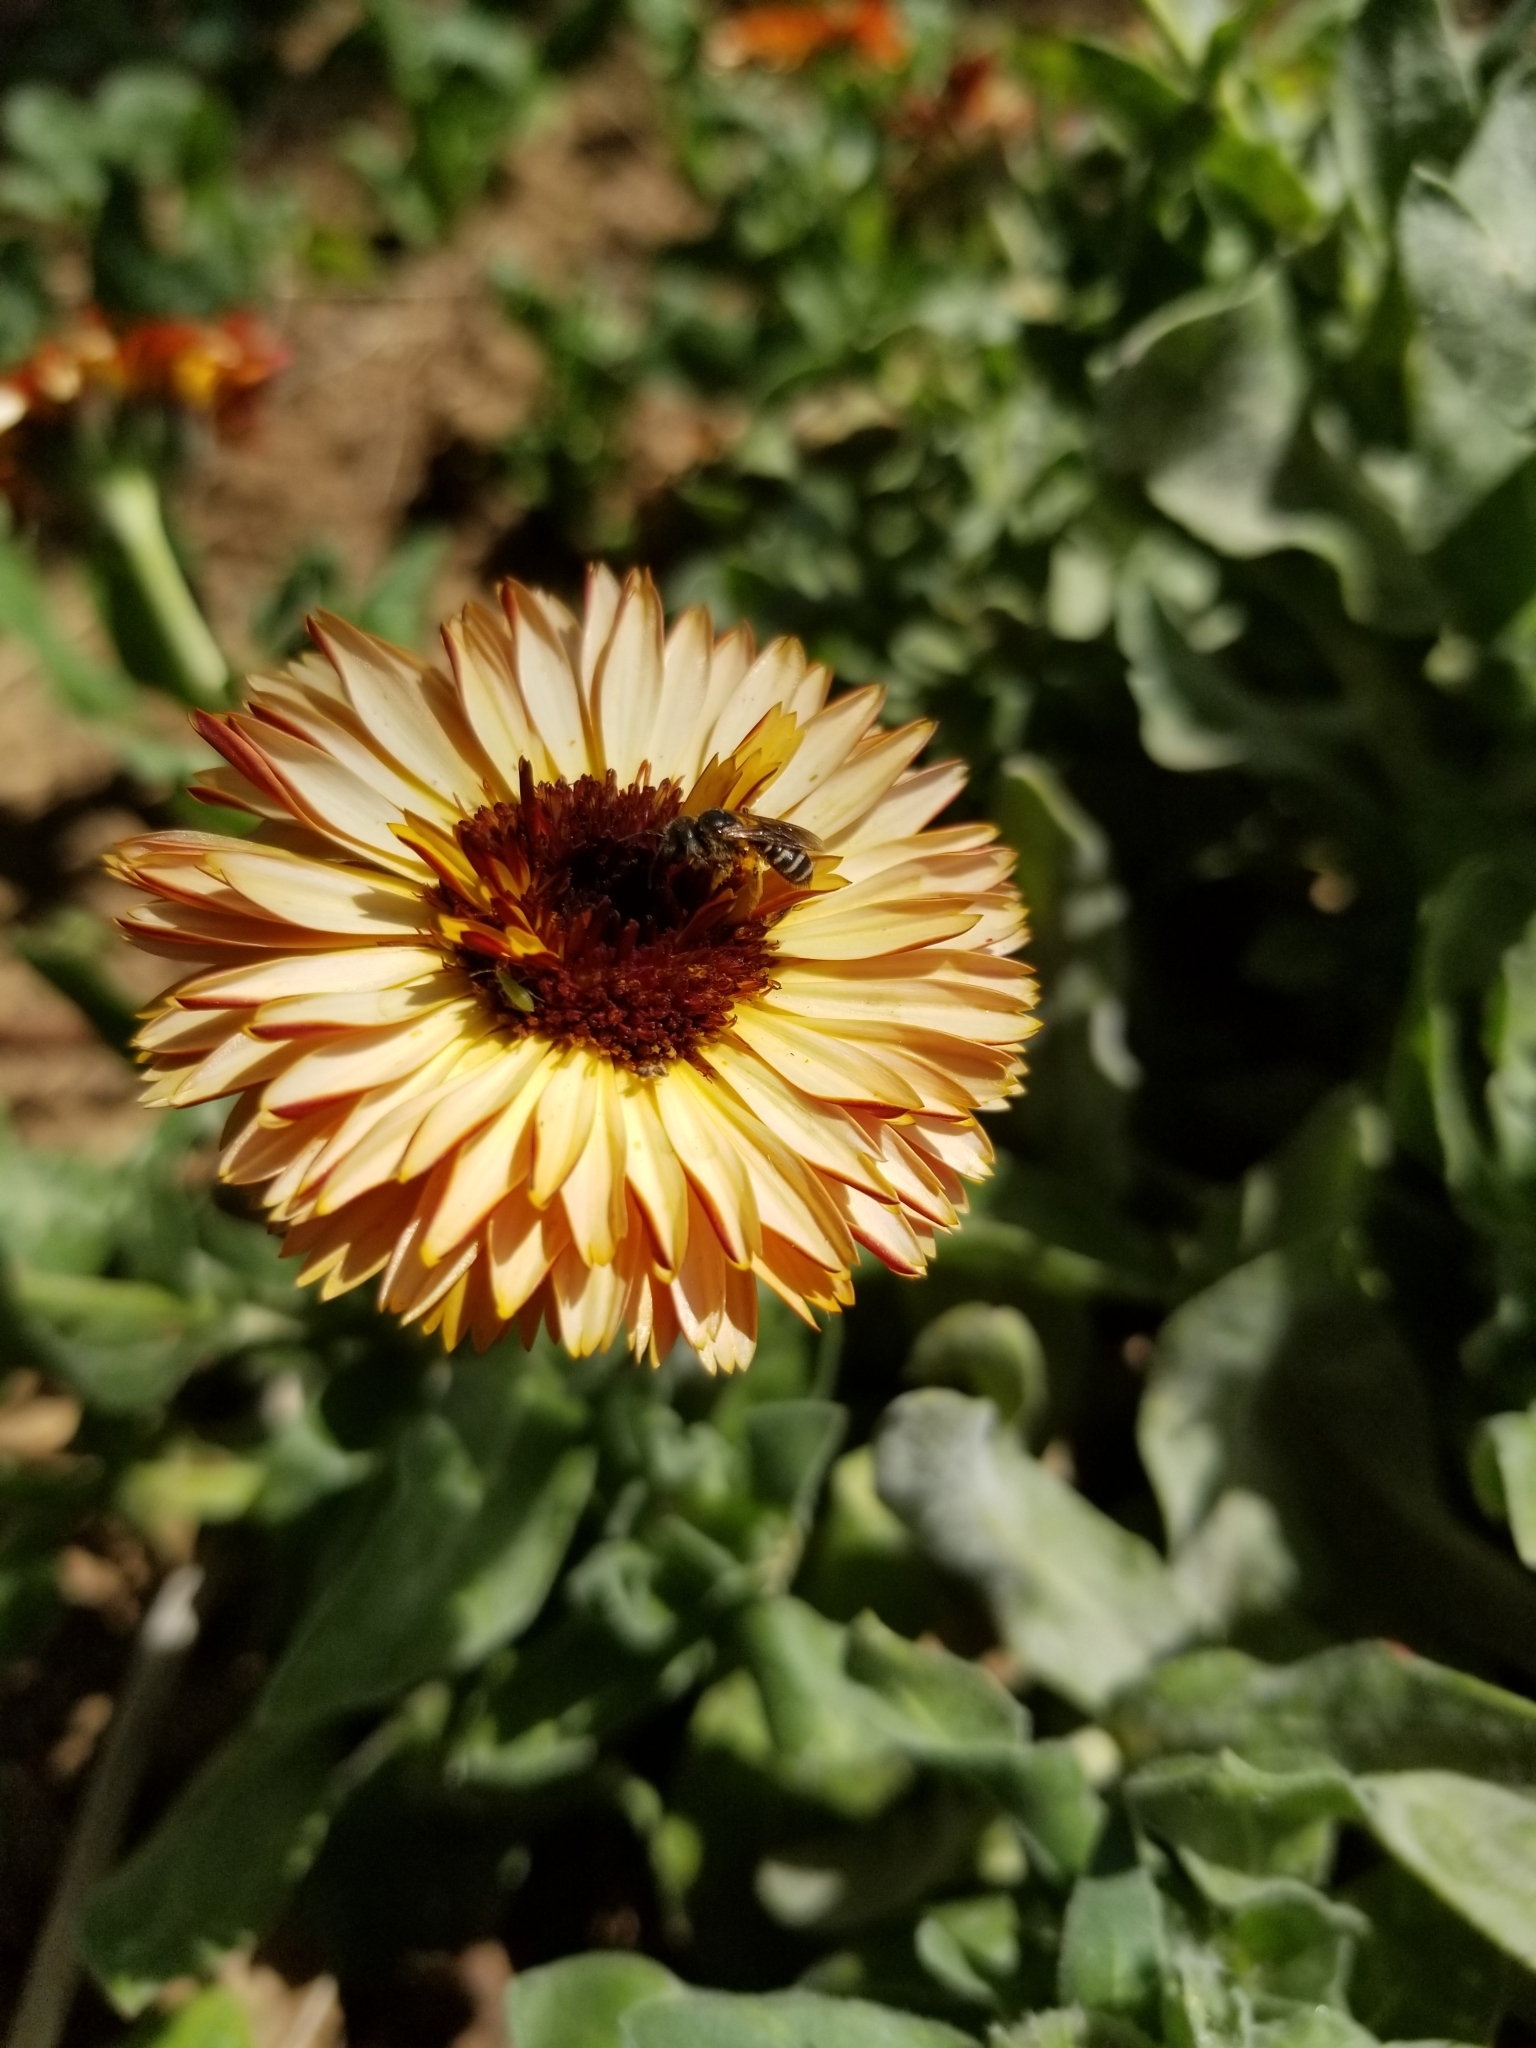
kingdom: Animalia
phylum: Arthropoda
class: Insecta
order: Hymenoptera
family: Halictidae
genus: Halictus
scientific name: Halictus ligatus
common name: Ligated furrow bee
